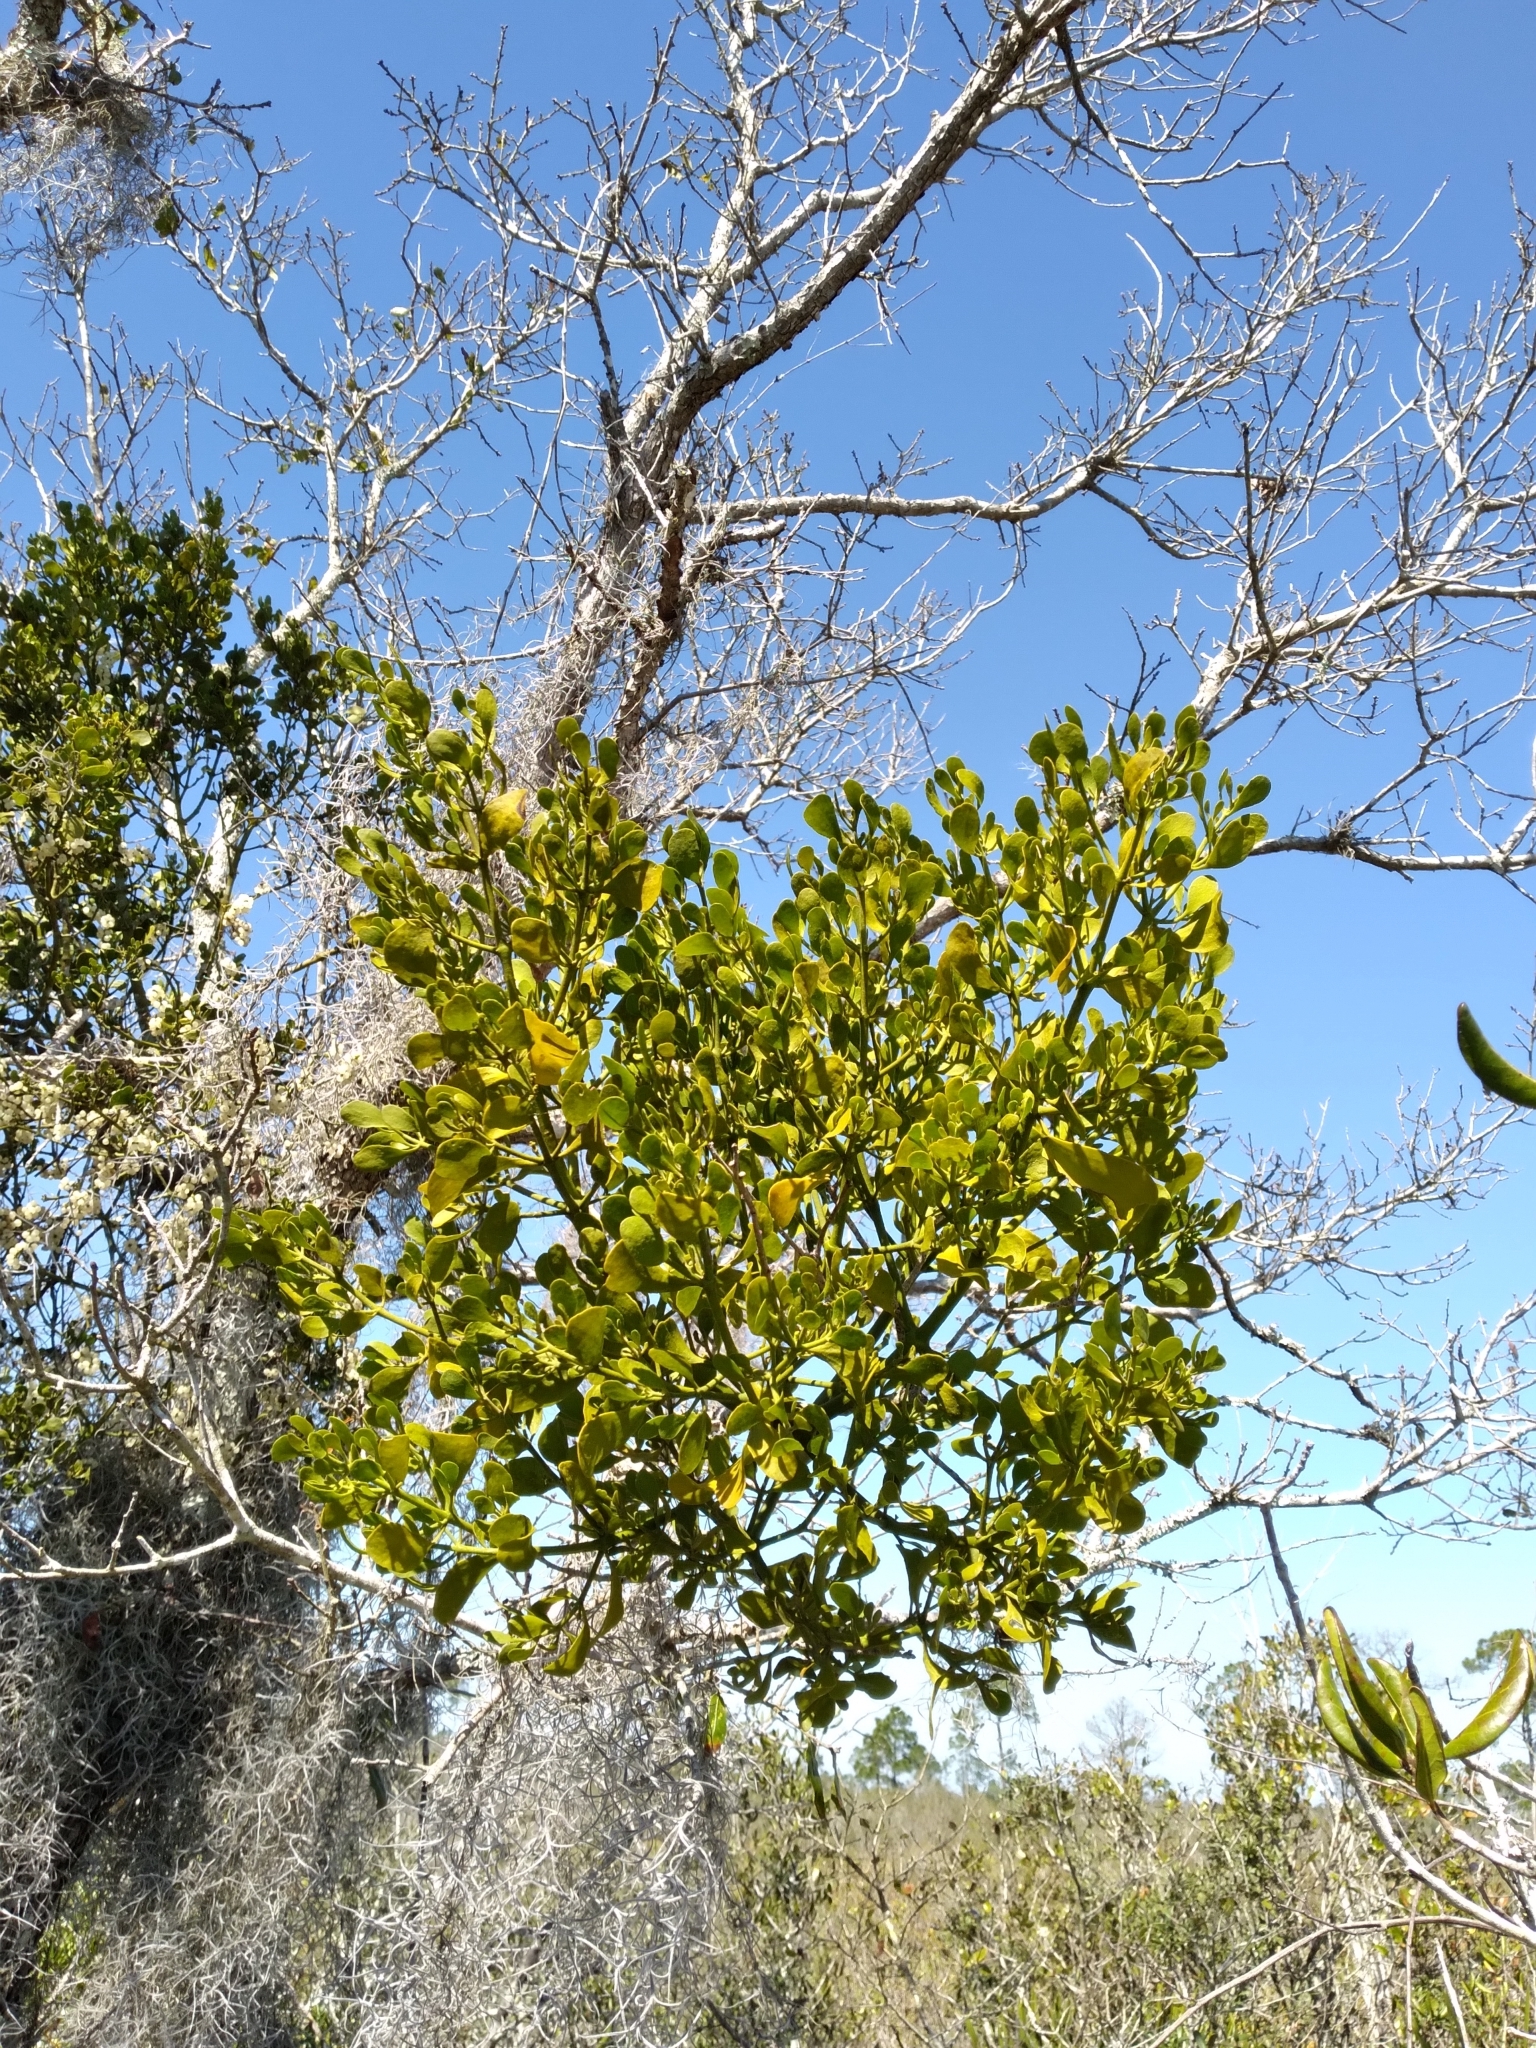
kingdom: Plantae
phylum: Tracheophyta
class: Magnoliopsida
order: Santalales
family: Viscaceae
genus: Phoradendron
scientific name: Phoradendron leucarpum
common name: Pacific mistletoe
